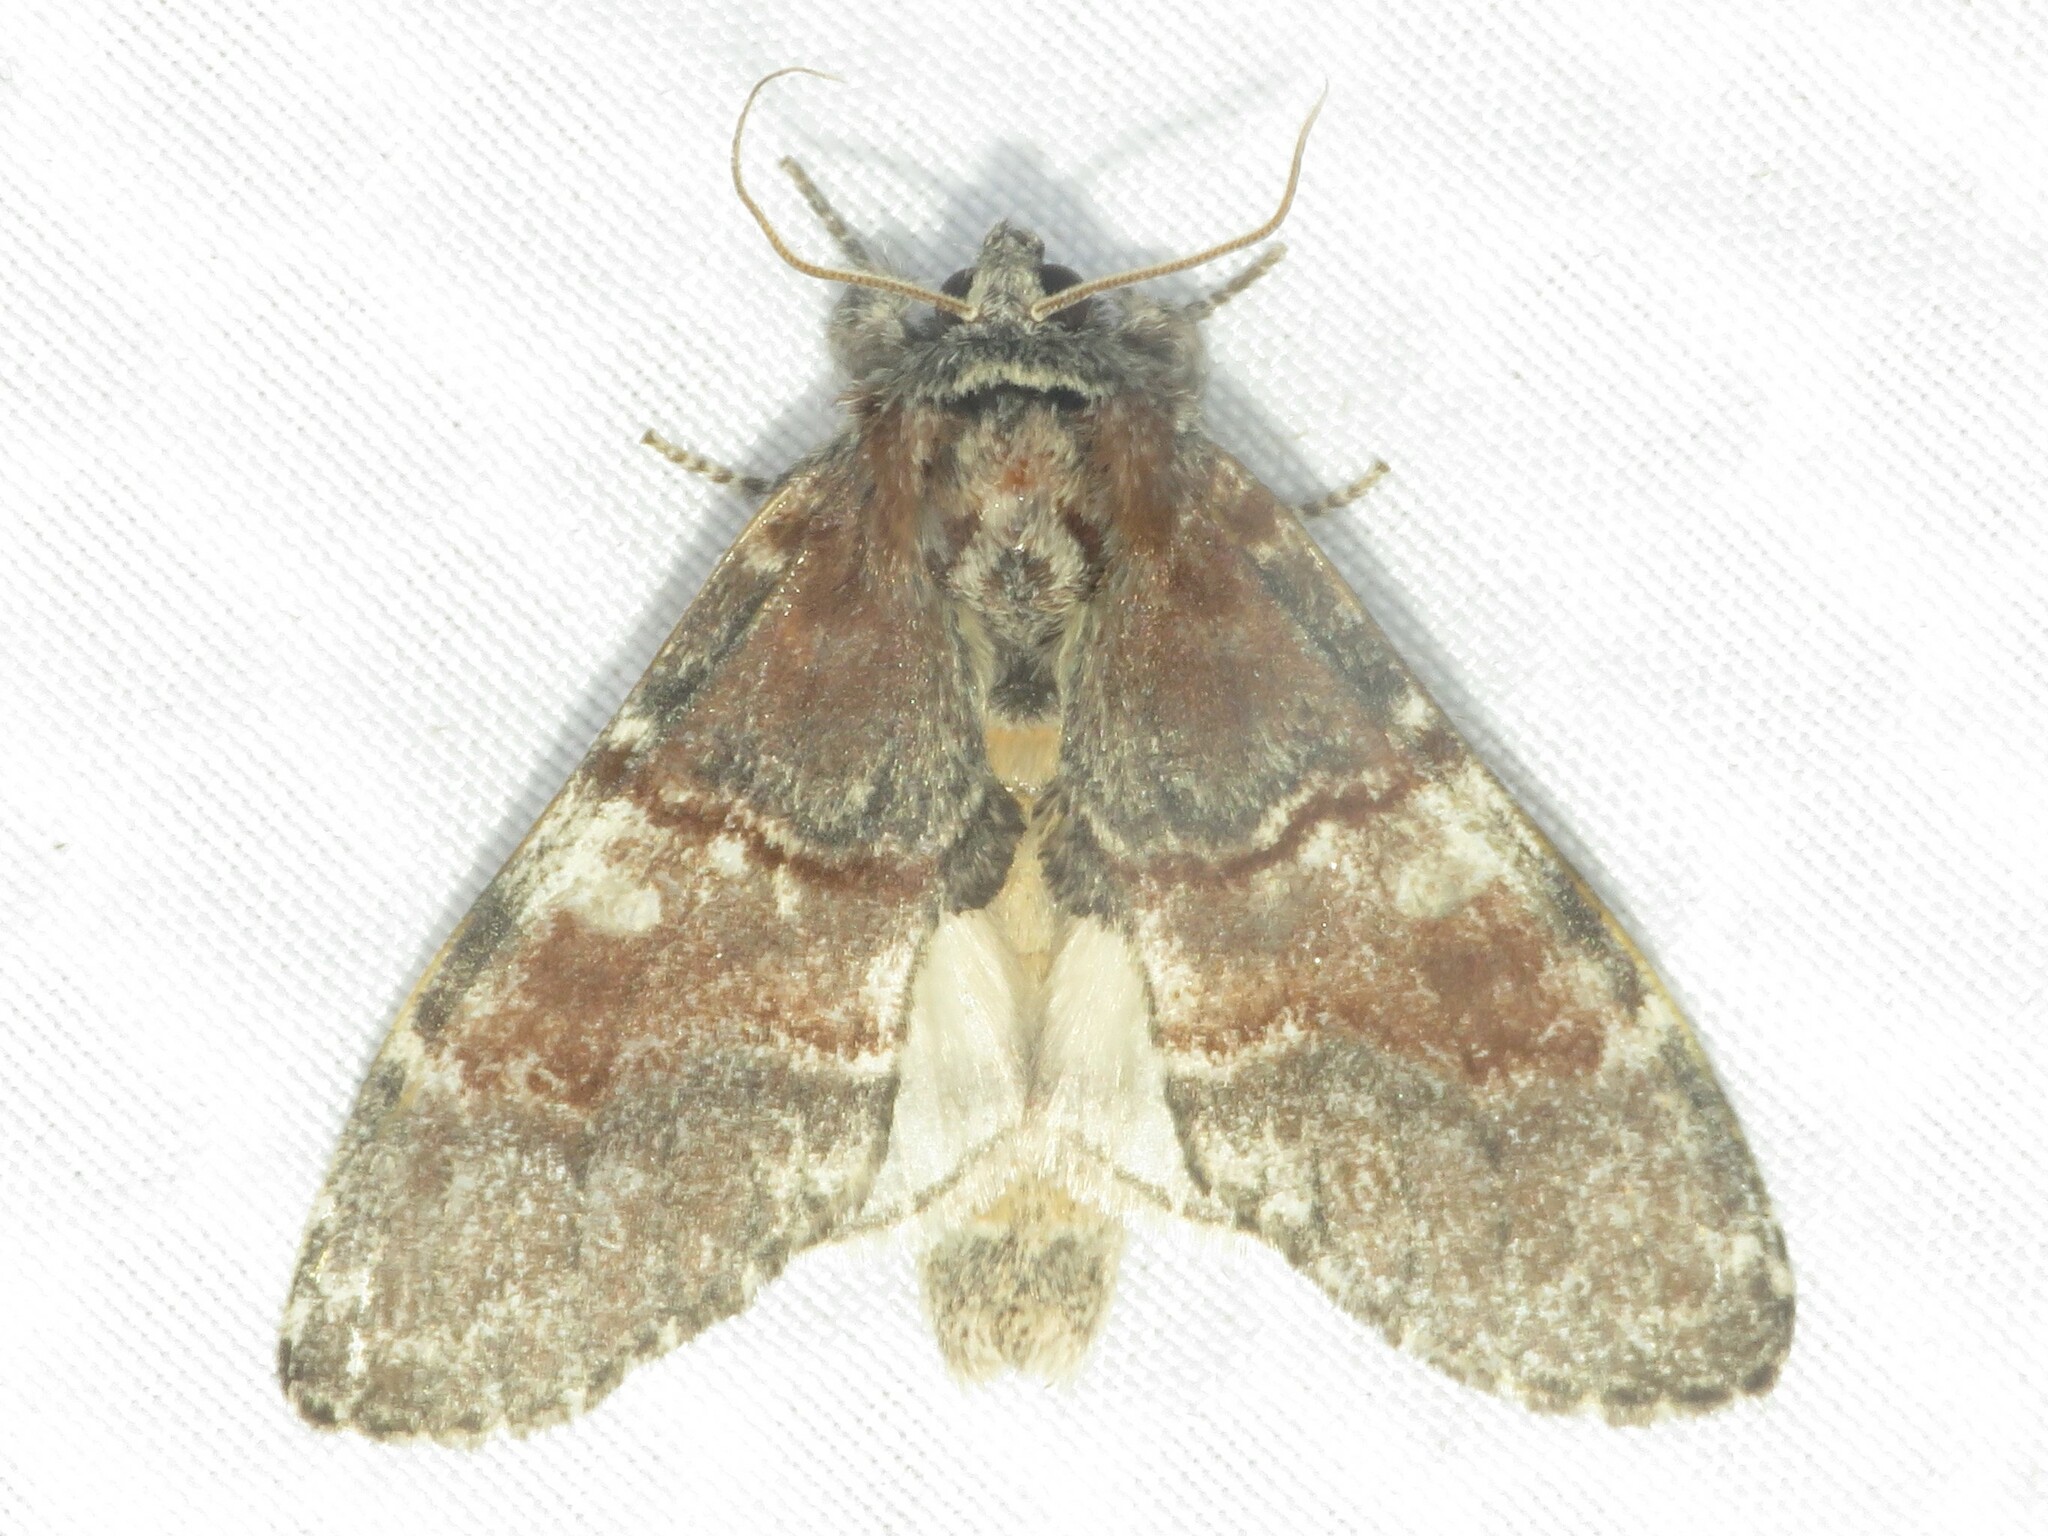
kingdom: Animalia
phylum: Arthropoda
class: Insecta
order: Lepidoptera
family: Notodontidae
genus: Peridea
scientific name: Peridea ferruginea
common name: Chocolate prominent
